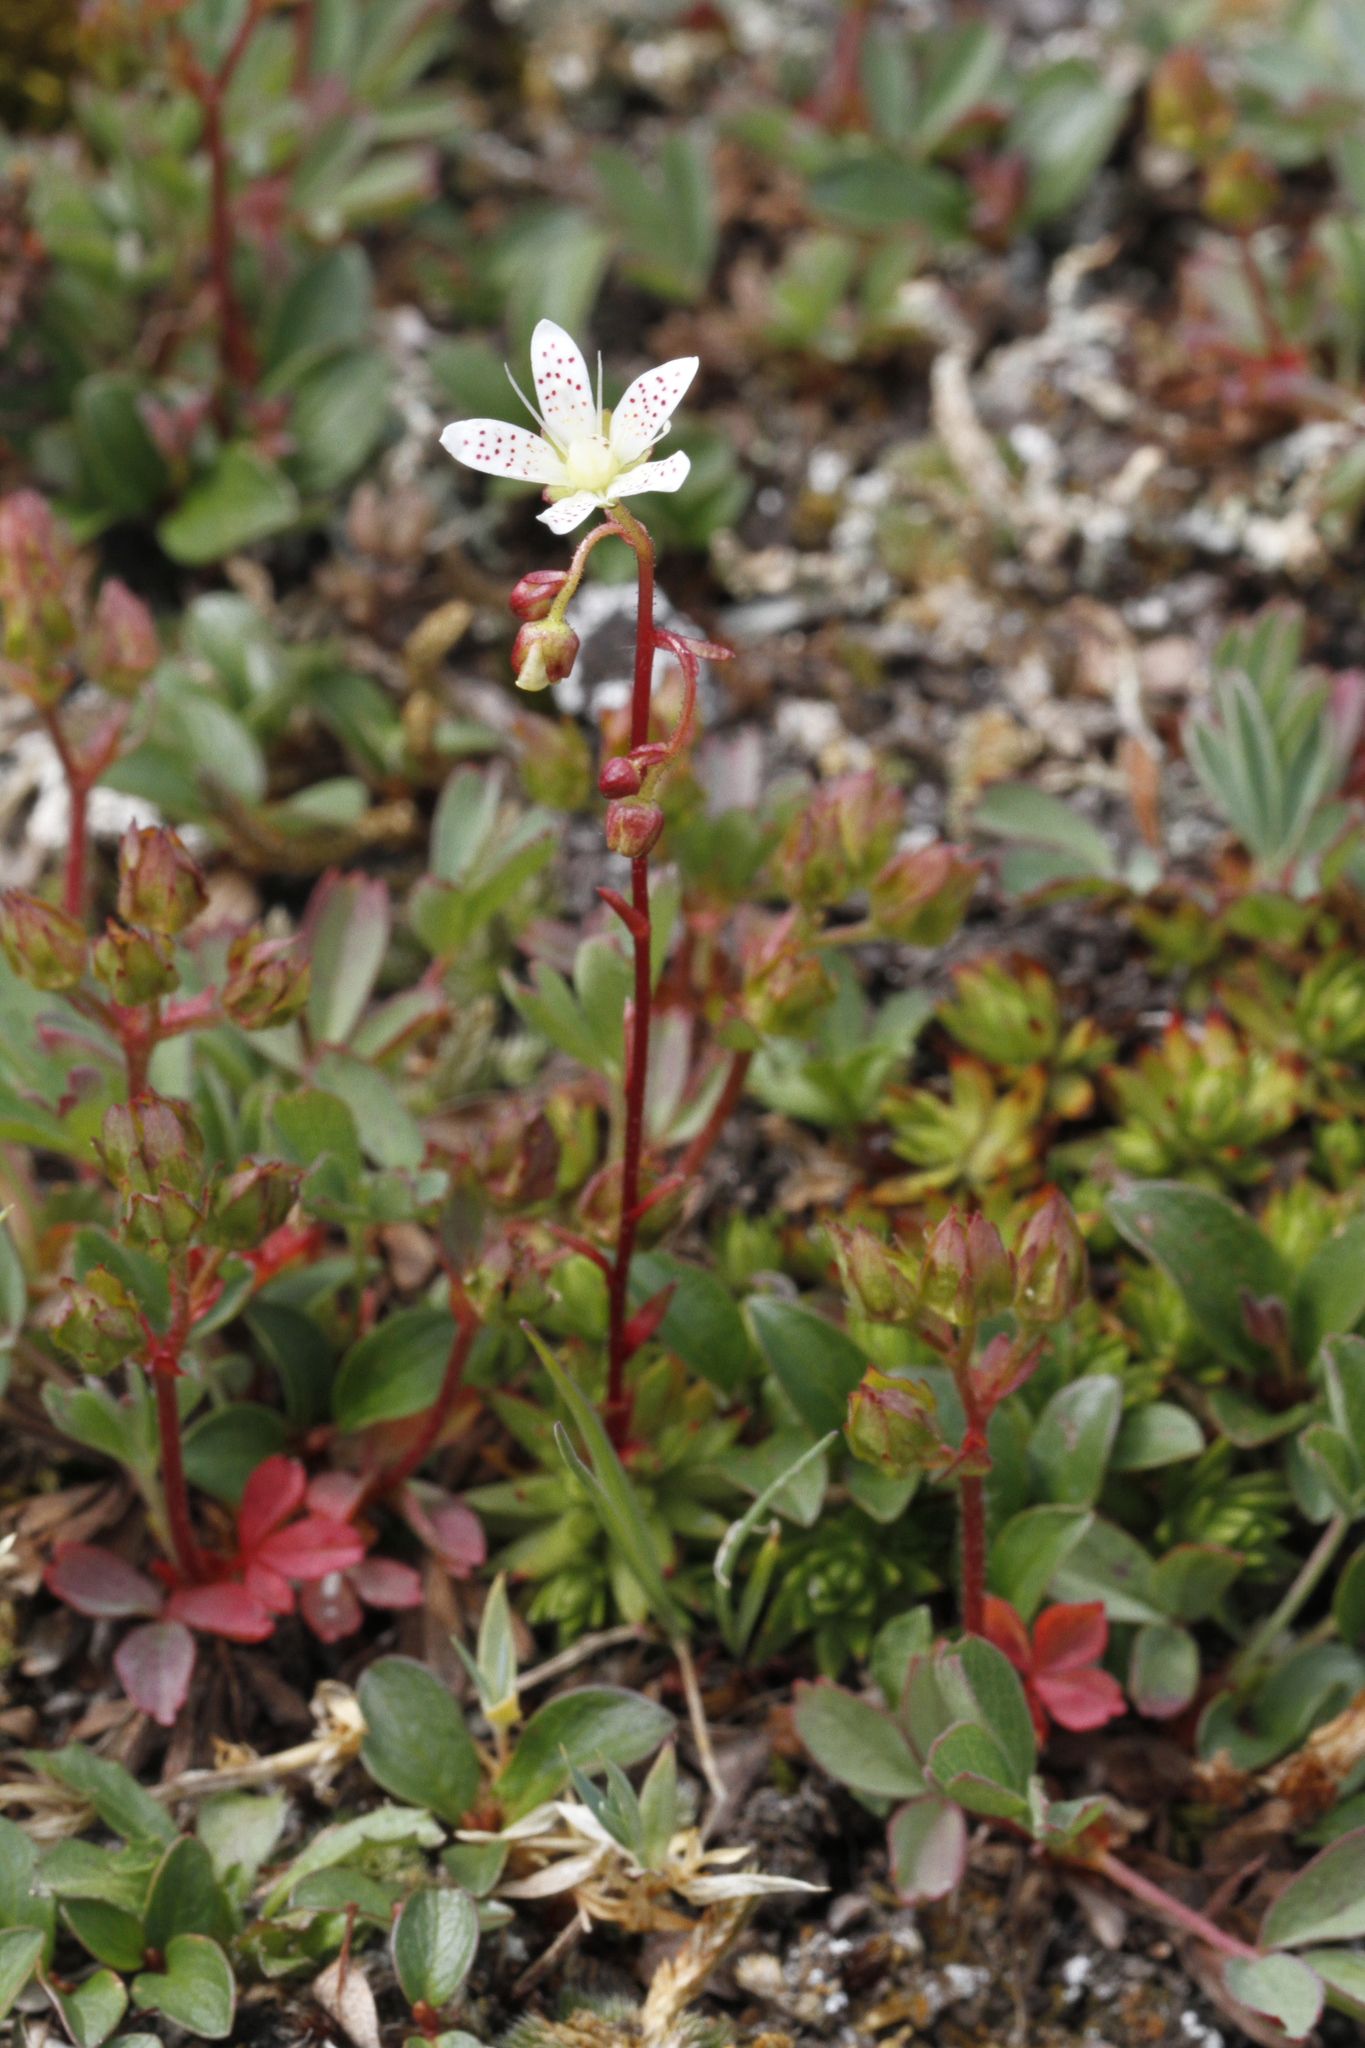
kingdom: Plantae
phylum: Tracheophyta
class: Magnoliopsida
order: Saxifragales
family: Saxifragaceae
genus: Saxifraga
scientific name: Saxifraga bronchialis
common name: Matted saxifrage
